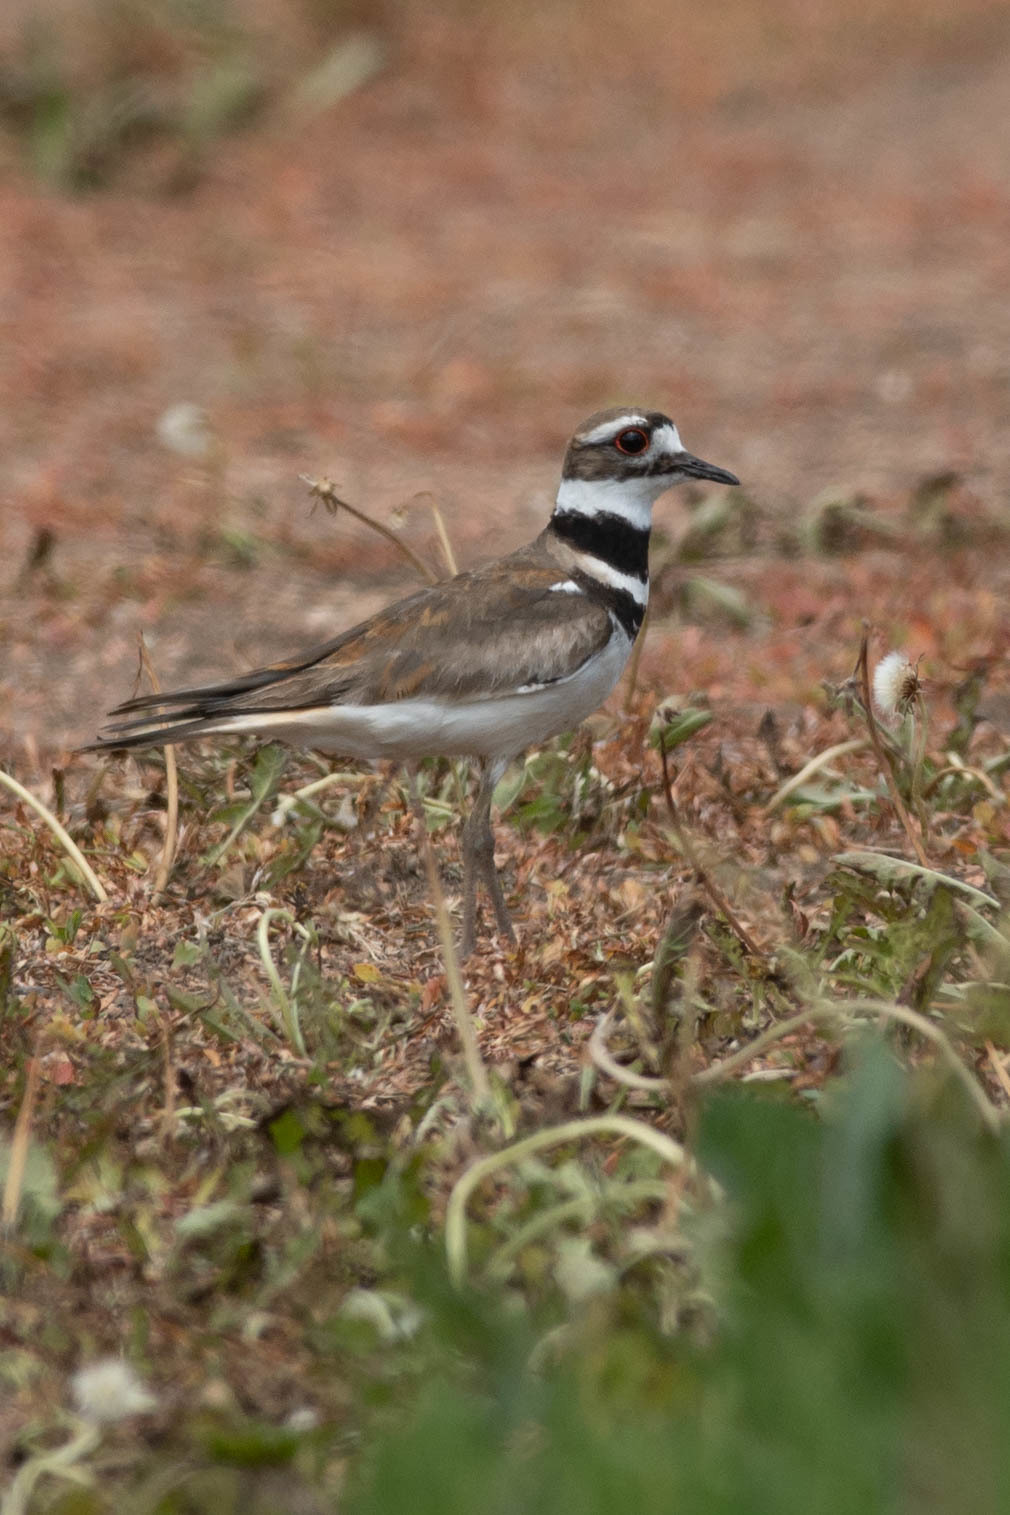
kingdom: Animalia
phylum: Chordata
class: Aves
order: Charadriiformes
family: Charadriidae
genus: Charadrius
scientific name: Charadrius vociferus
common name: Killdeer
